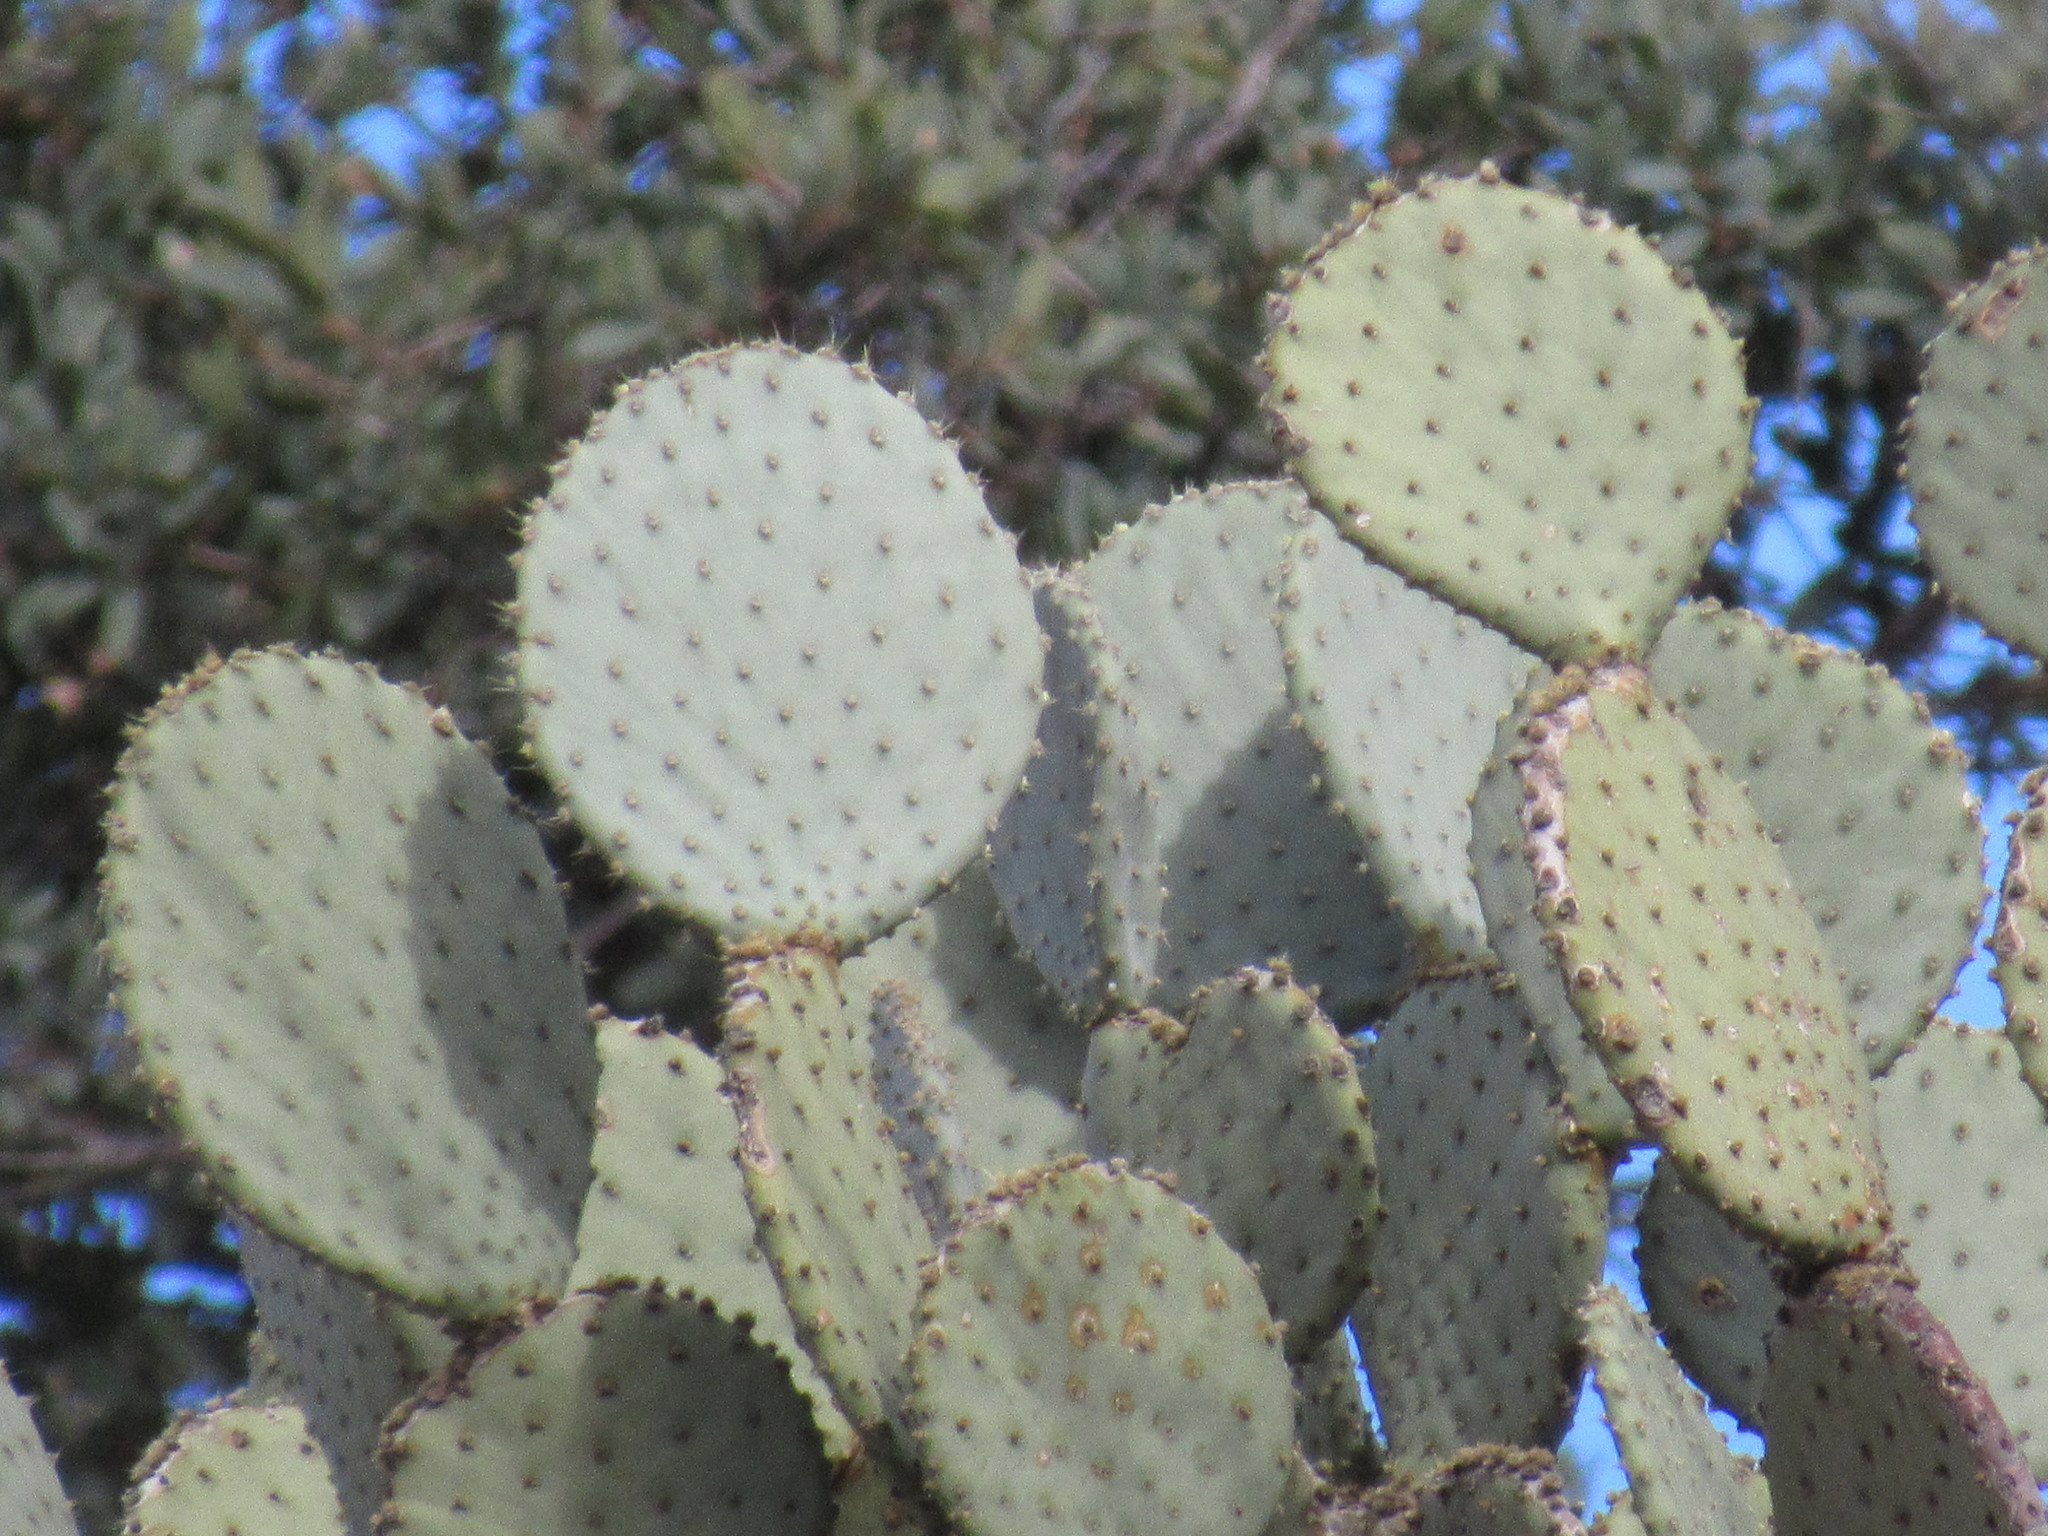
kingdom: Plantae
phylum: Tracheophyta
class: Magnoliopsida
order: Caryophyllales
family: Cactaceae
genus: Opuntia
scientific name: Opuntia chlorotica
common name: Dollar-joint prickly-pear
